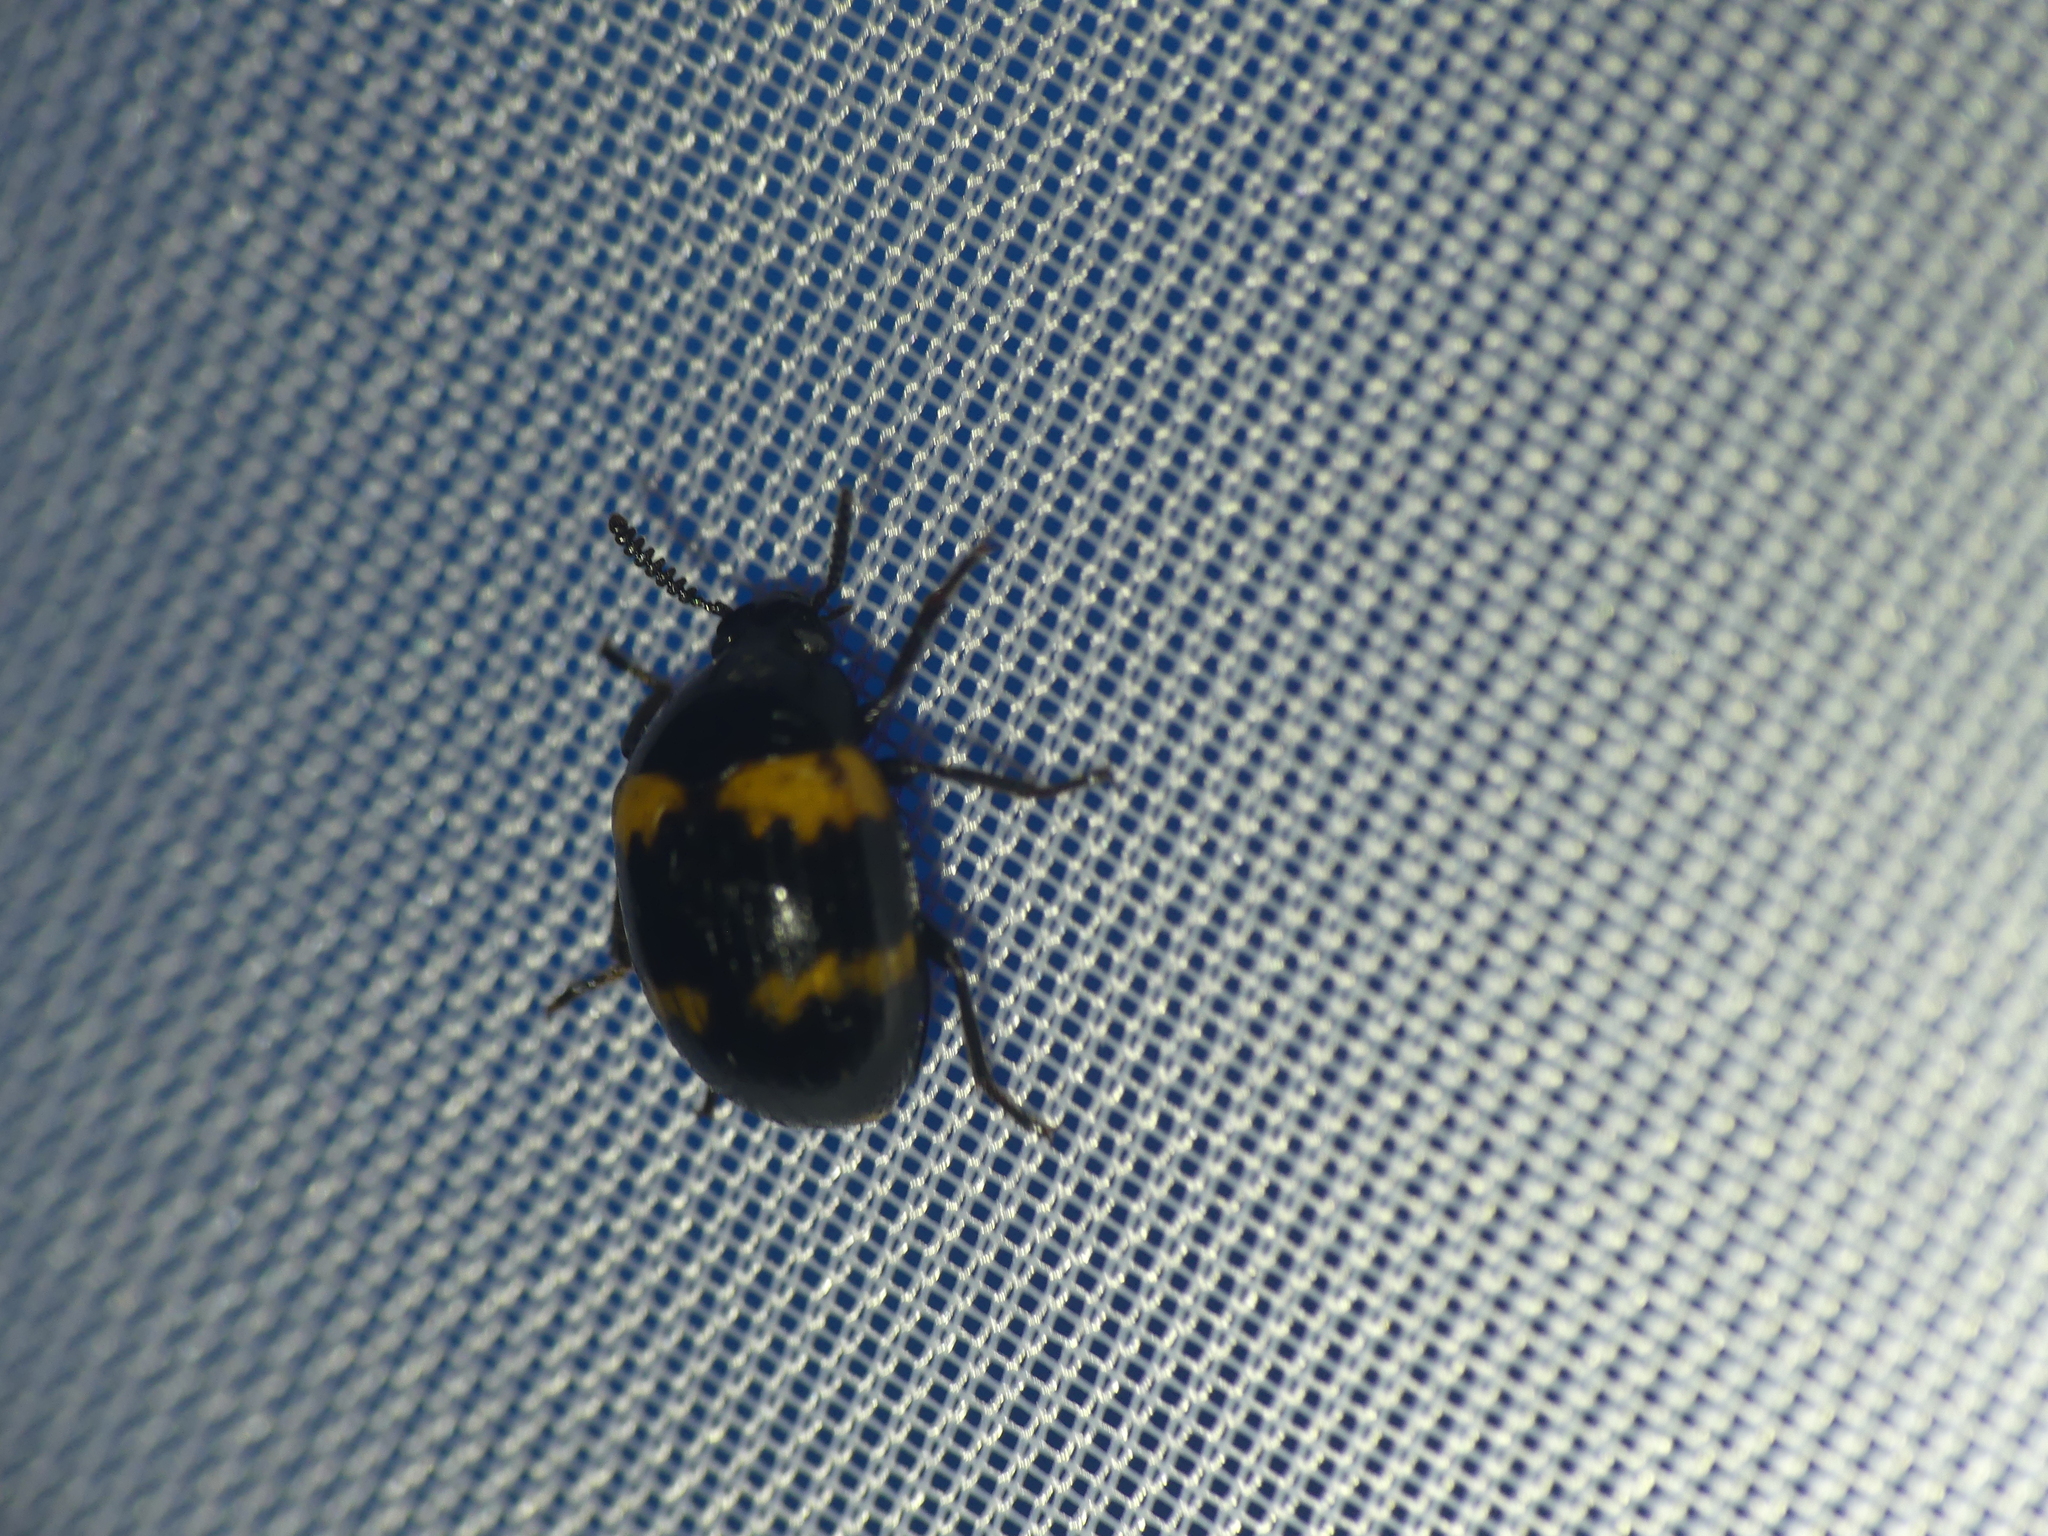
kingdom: Animalia
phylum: Arthropoda
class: Insecta
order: Coleoptera
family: Tenebrionidae
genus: Diaperis
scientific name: Diaperis boleti
